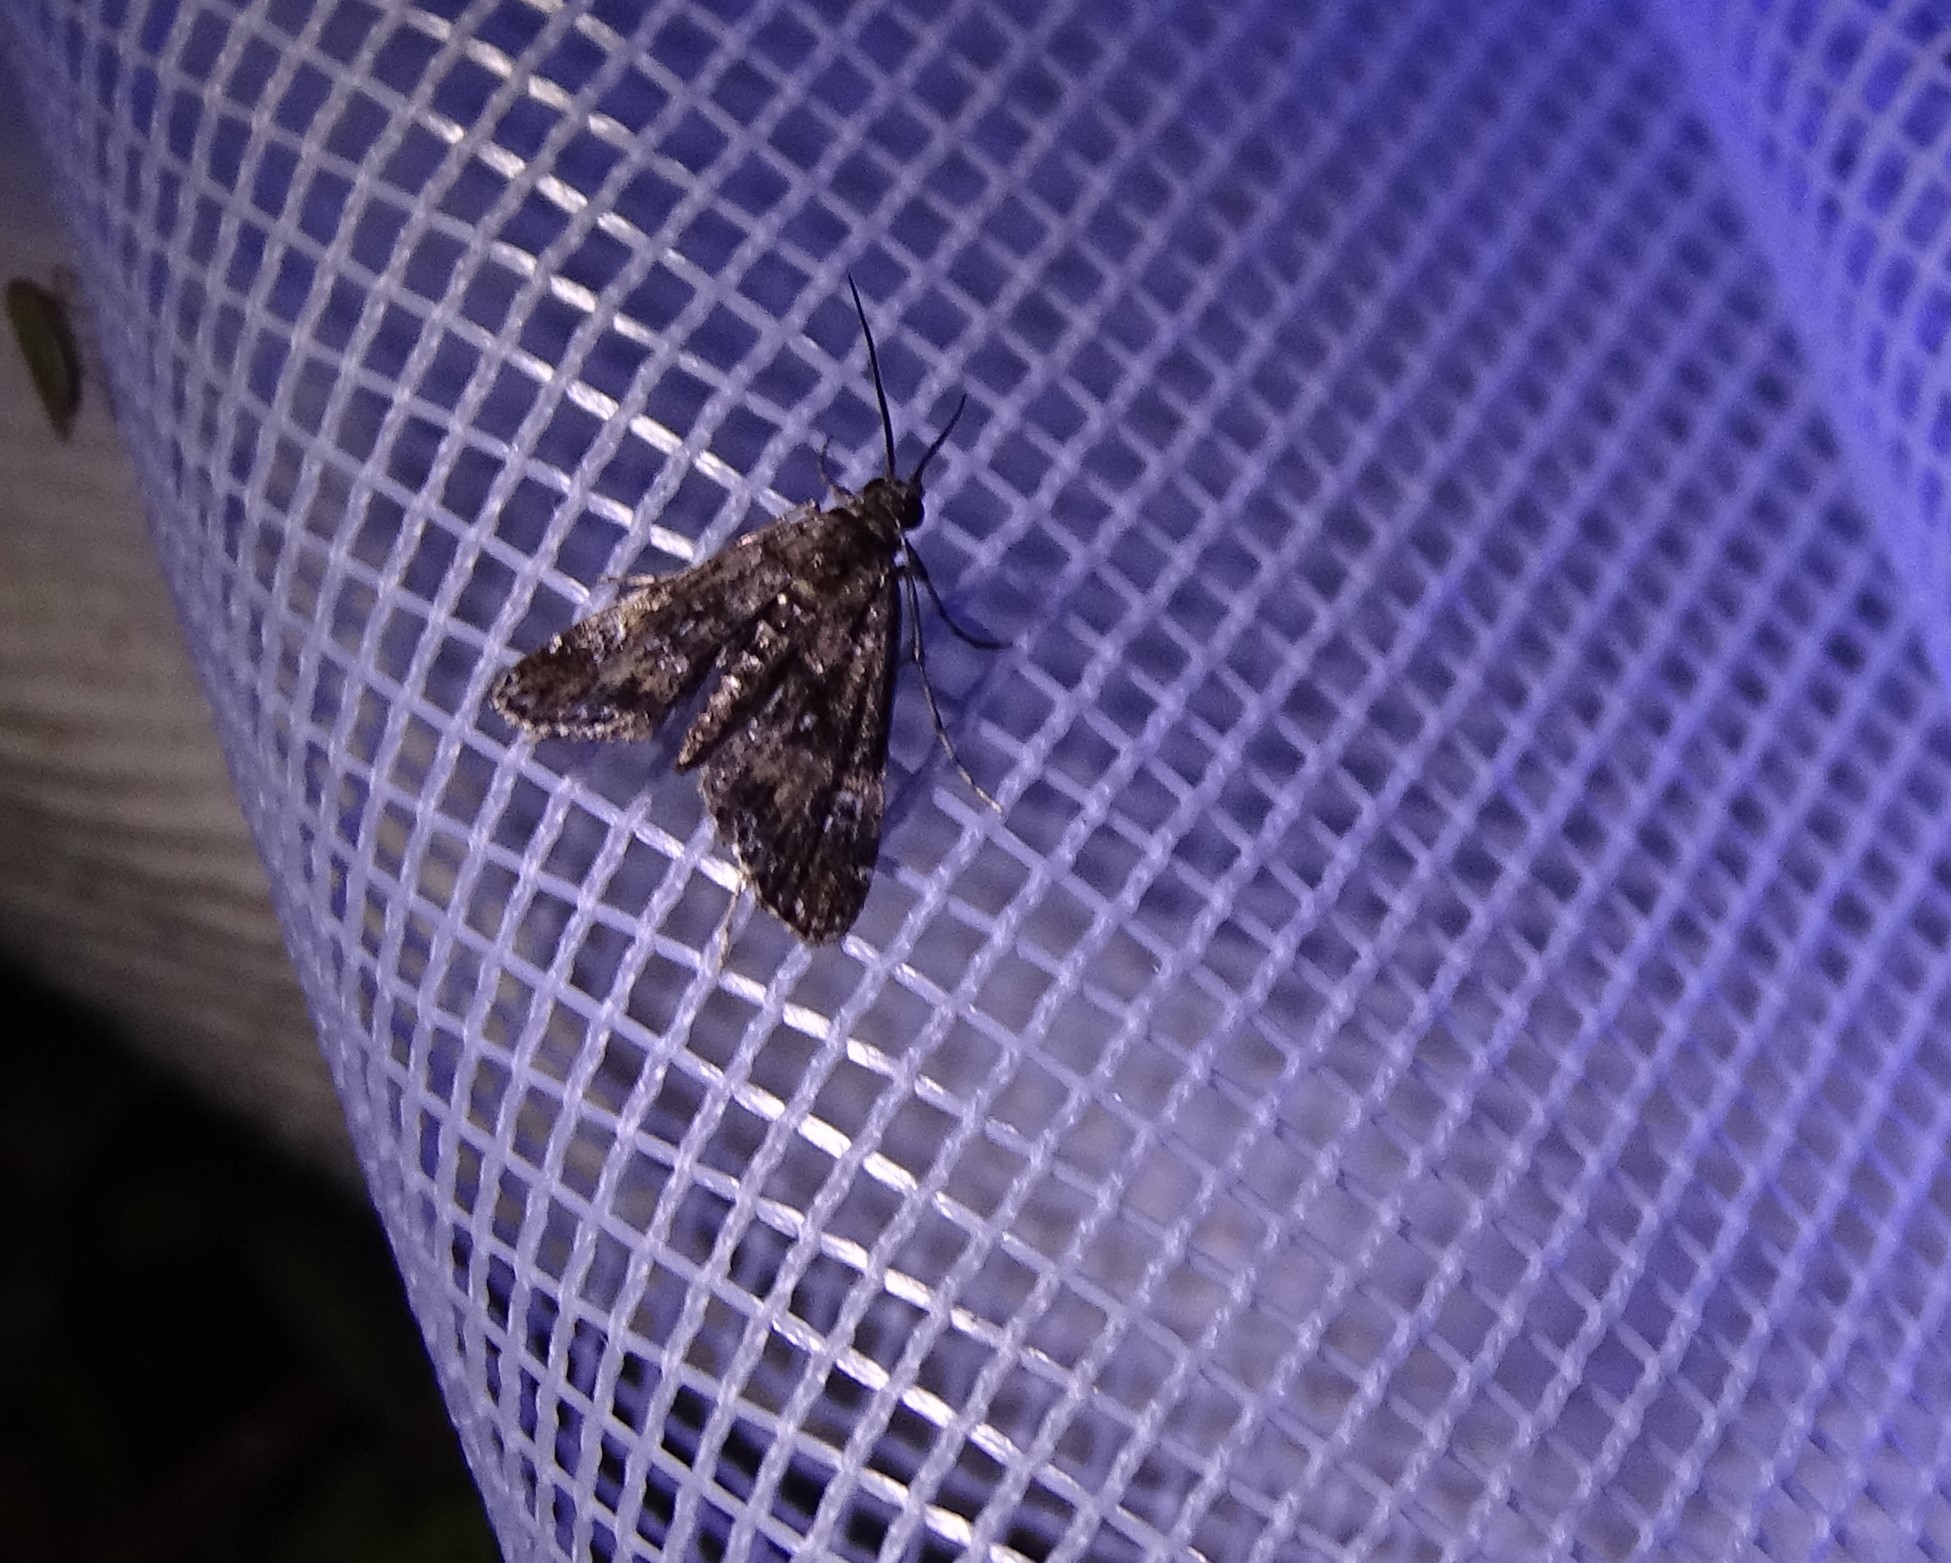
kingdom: Animalia
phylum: Arthropoda
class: Insecta
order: Lepidoptera
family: Crambidae
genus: Elophila
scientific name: Elophila obliteralis
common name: Waterlily leafcutter moth
